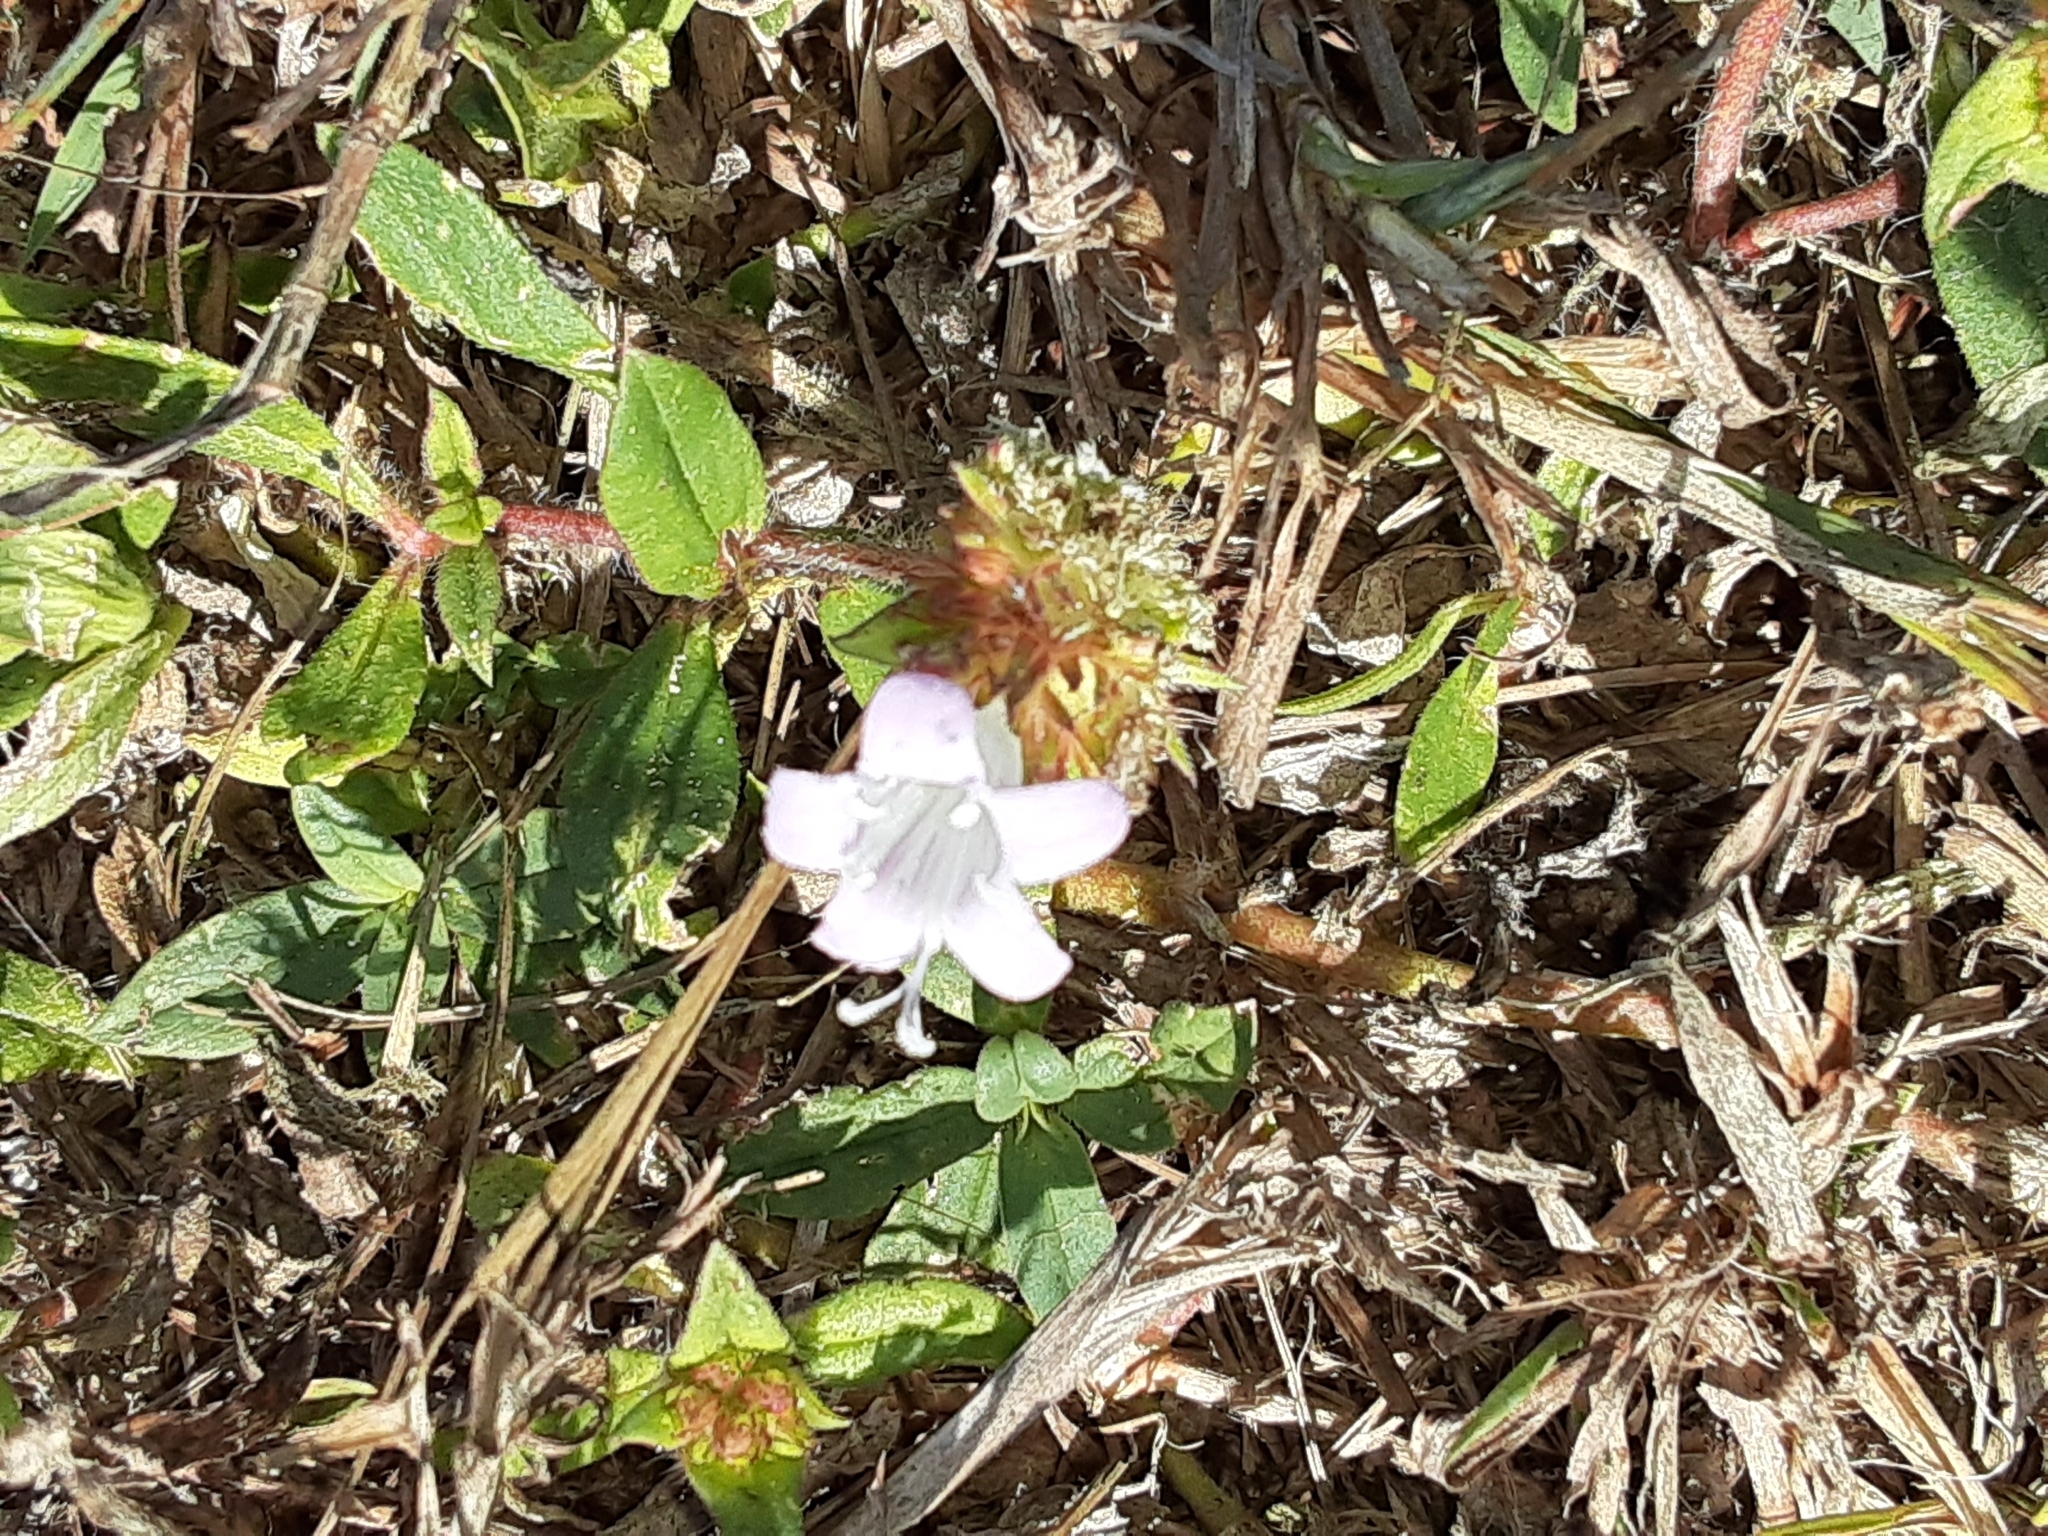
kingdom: Plantae
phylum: Tracheophyta
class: Magnoliopsida
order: Gentianales
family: Rubiaceae
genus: Richardia
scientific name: Richardia grandiflora
